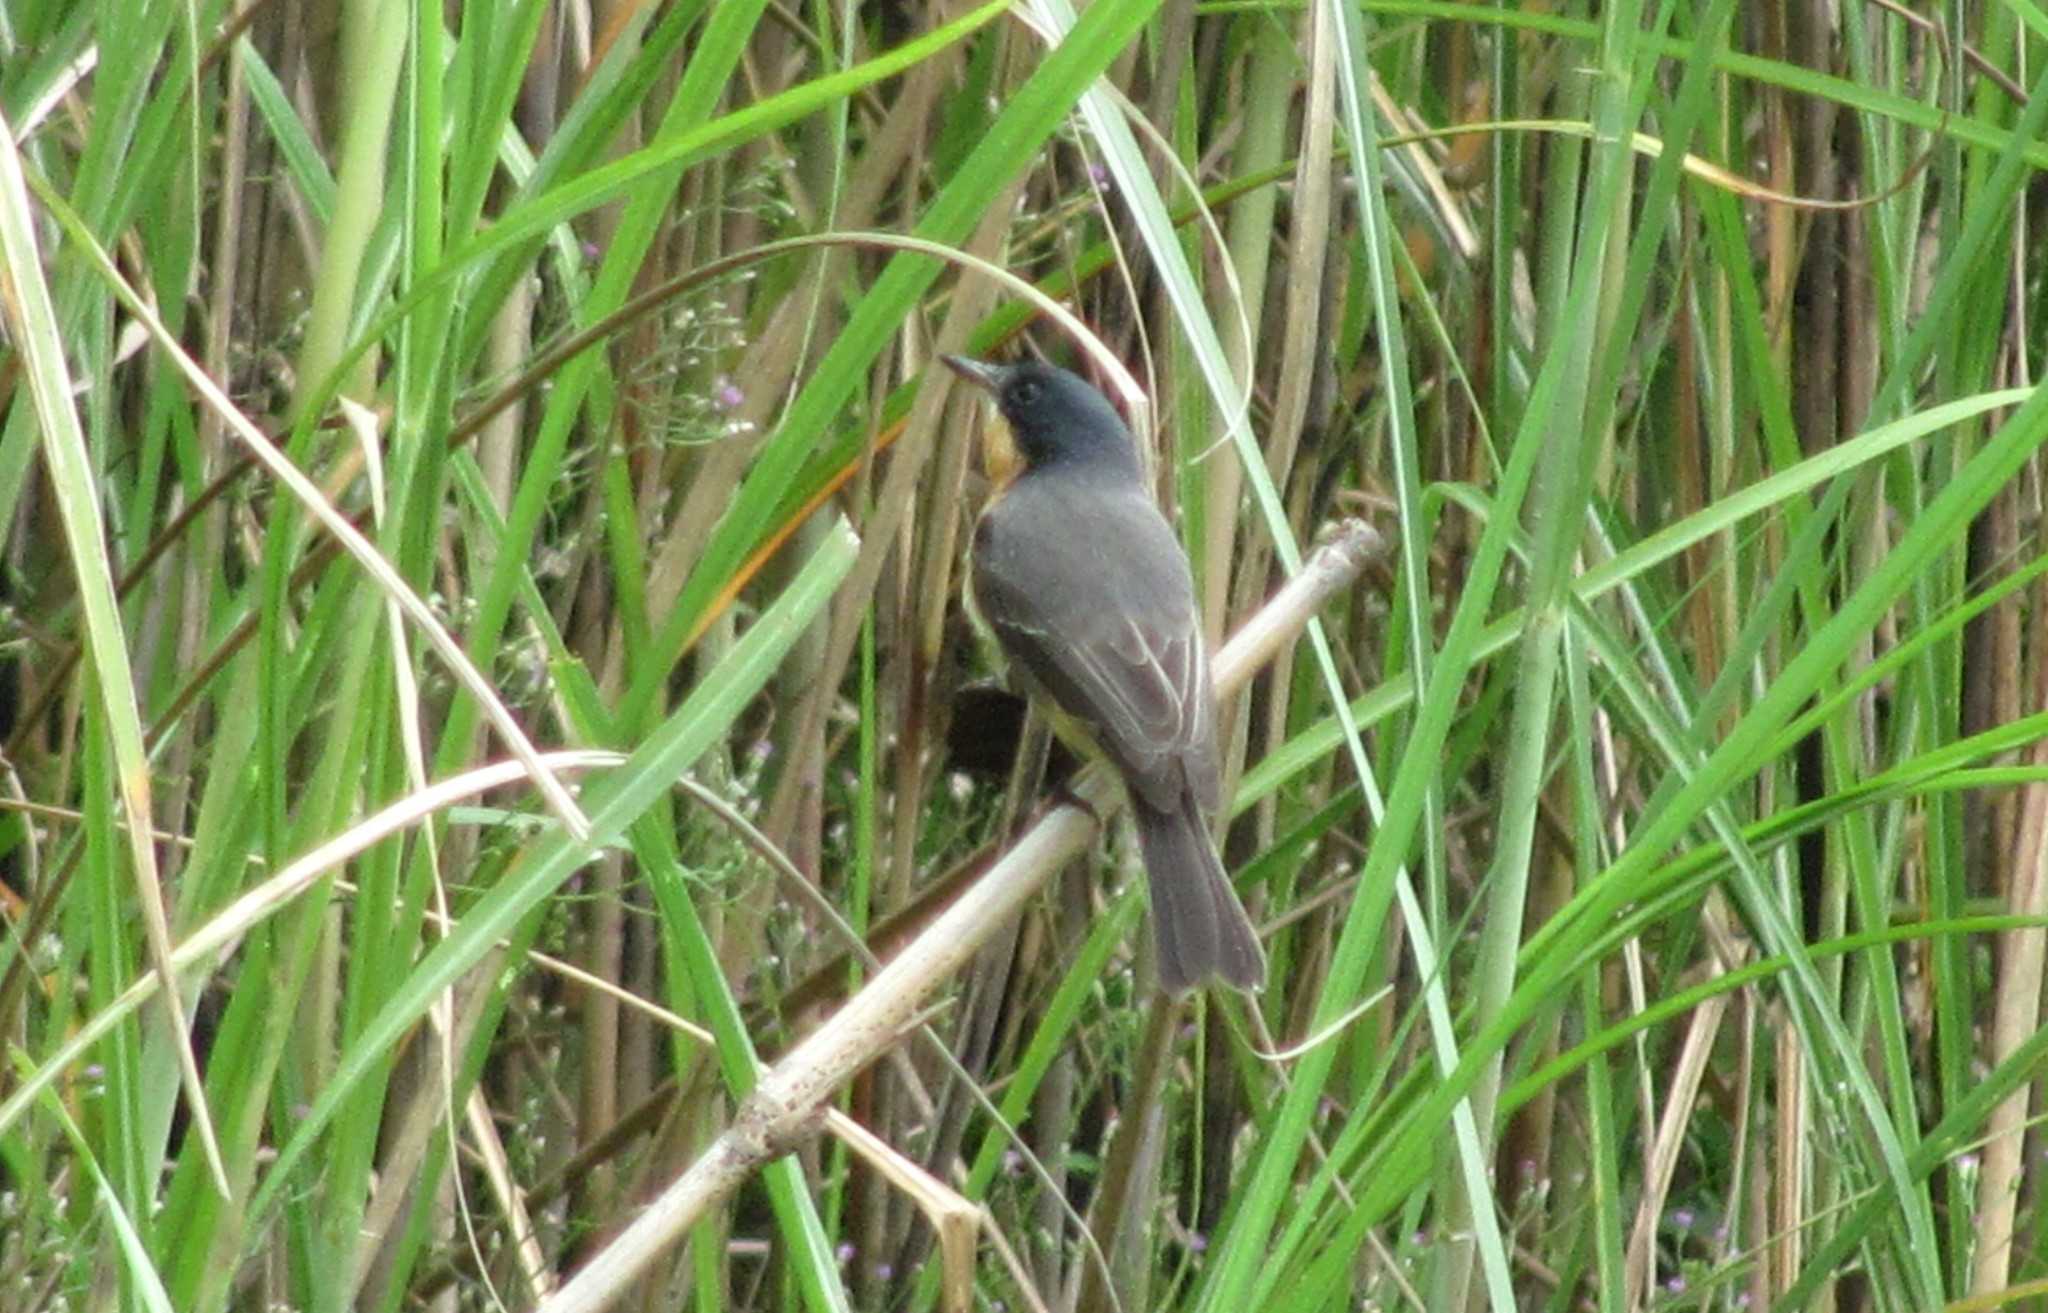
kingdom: Animalia
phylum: Chordata
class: Aves
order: Passeriformes
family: Monarchidae
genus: Myiagra
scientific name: Myiagra vanikorensis
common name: Vanikoro flycatcher
